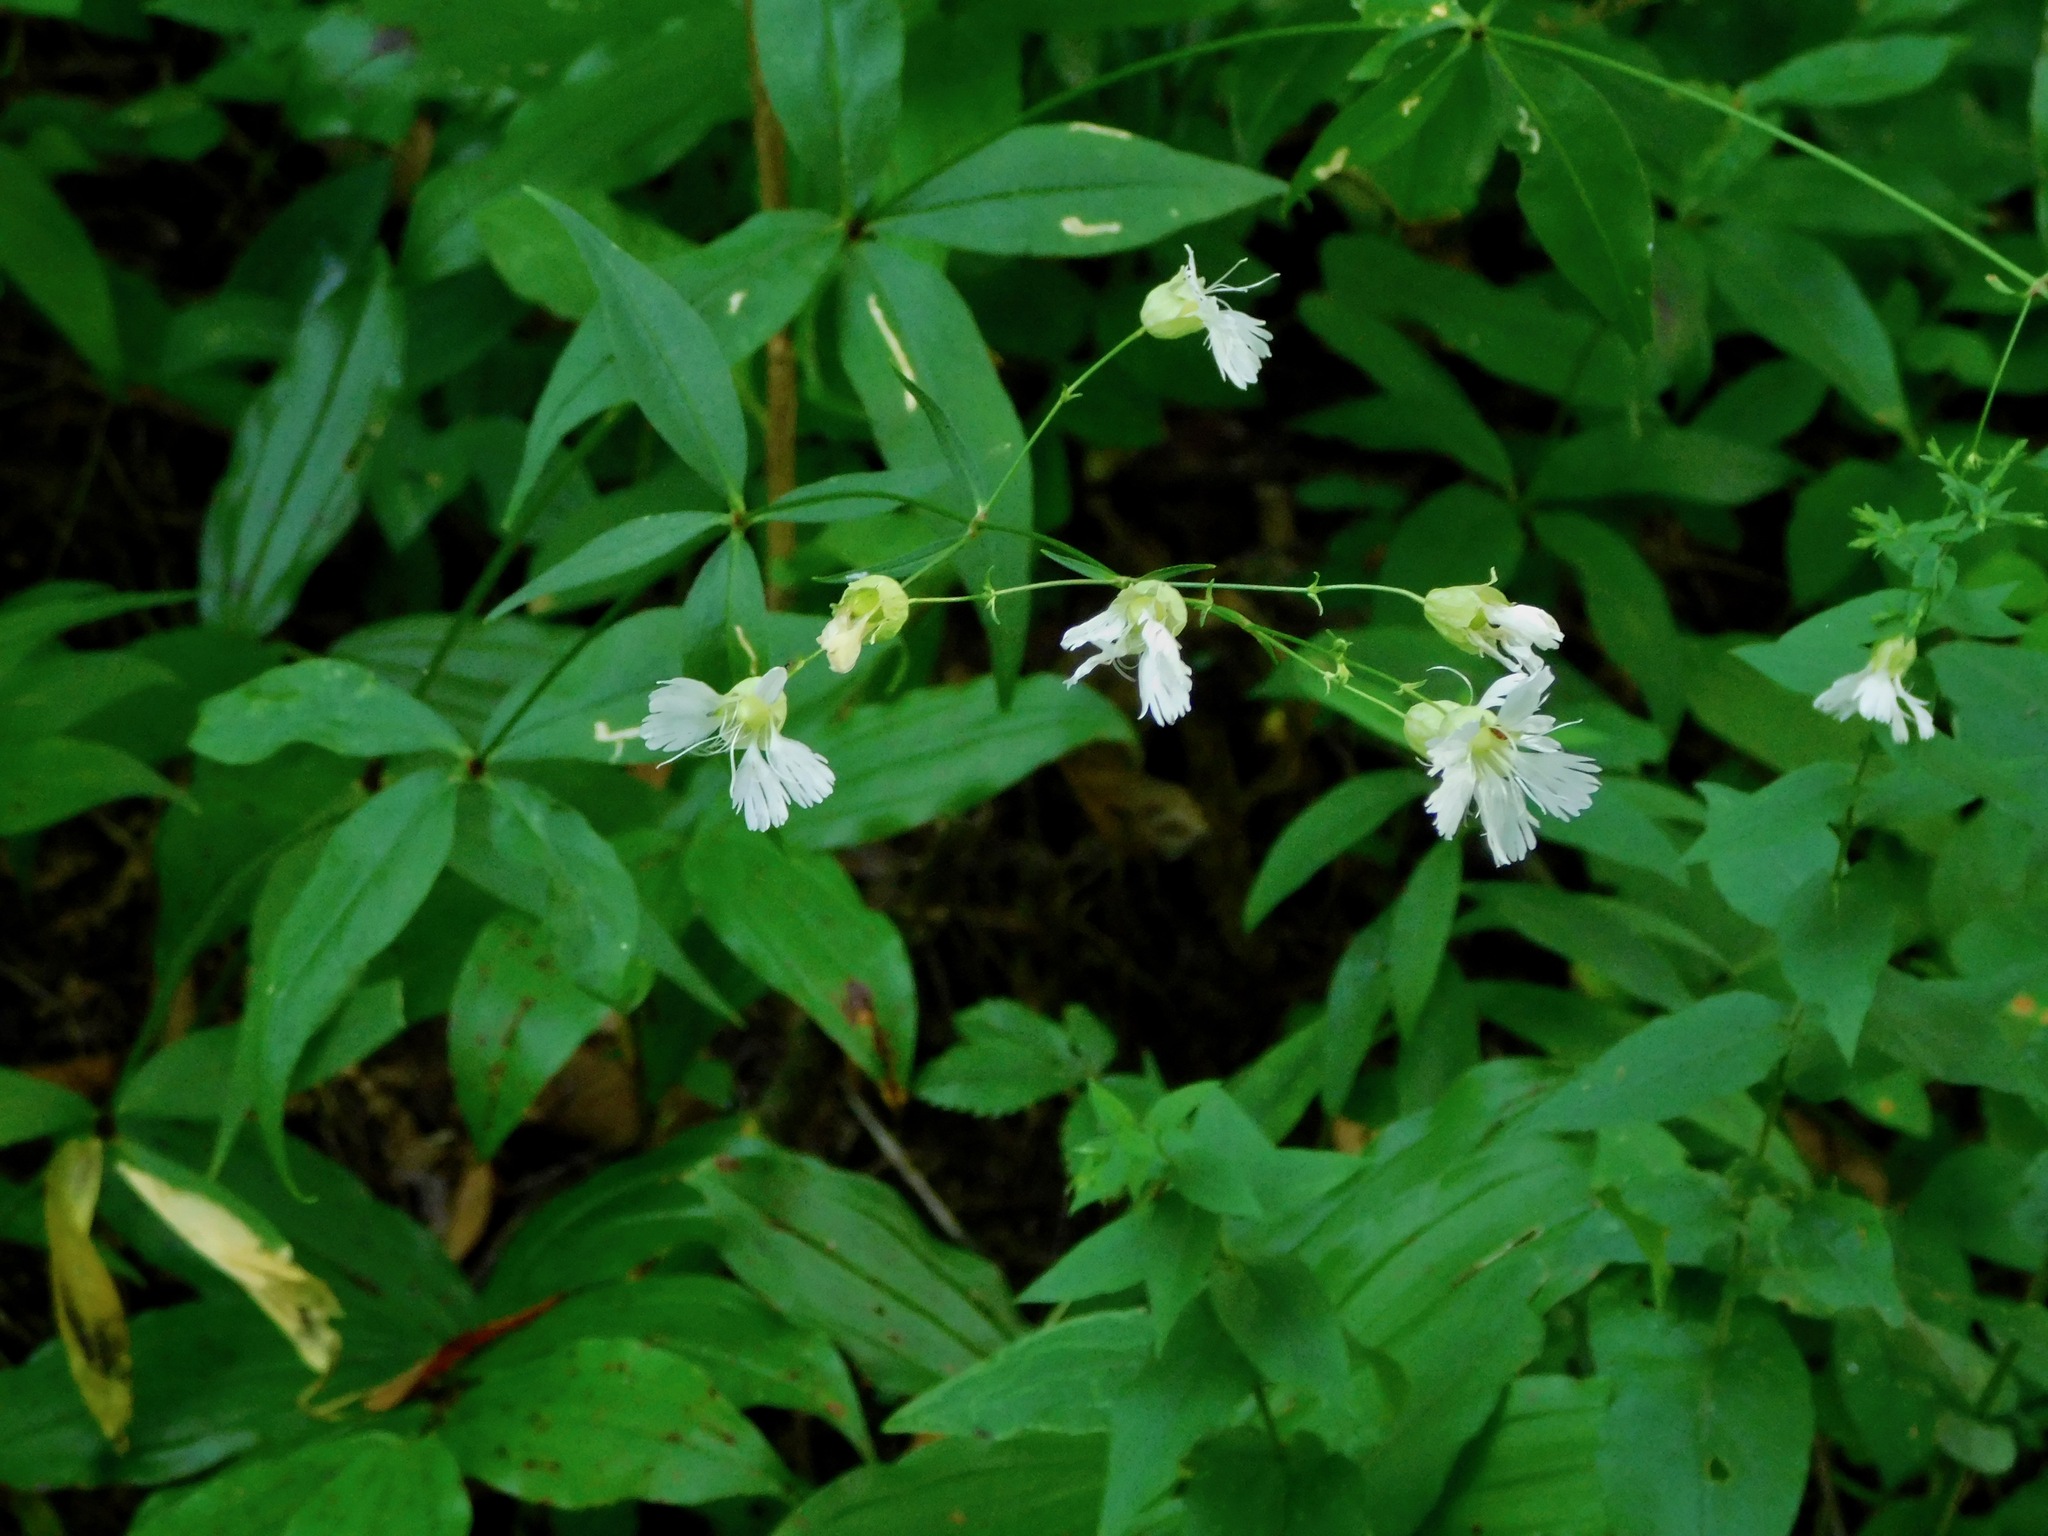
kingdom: Plantae
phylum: Tracheophyta
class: Magnoliopsida
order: Caryophyllales
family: Caryophyllaceae
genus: Silene
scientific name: Silene stellata
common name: Starry campion
